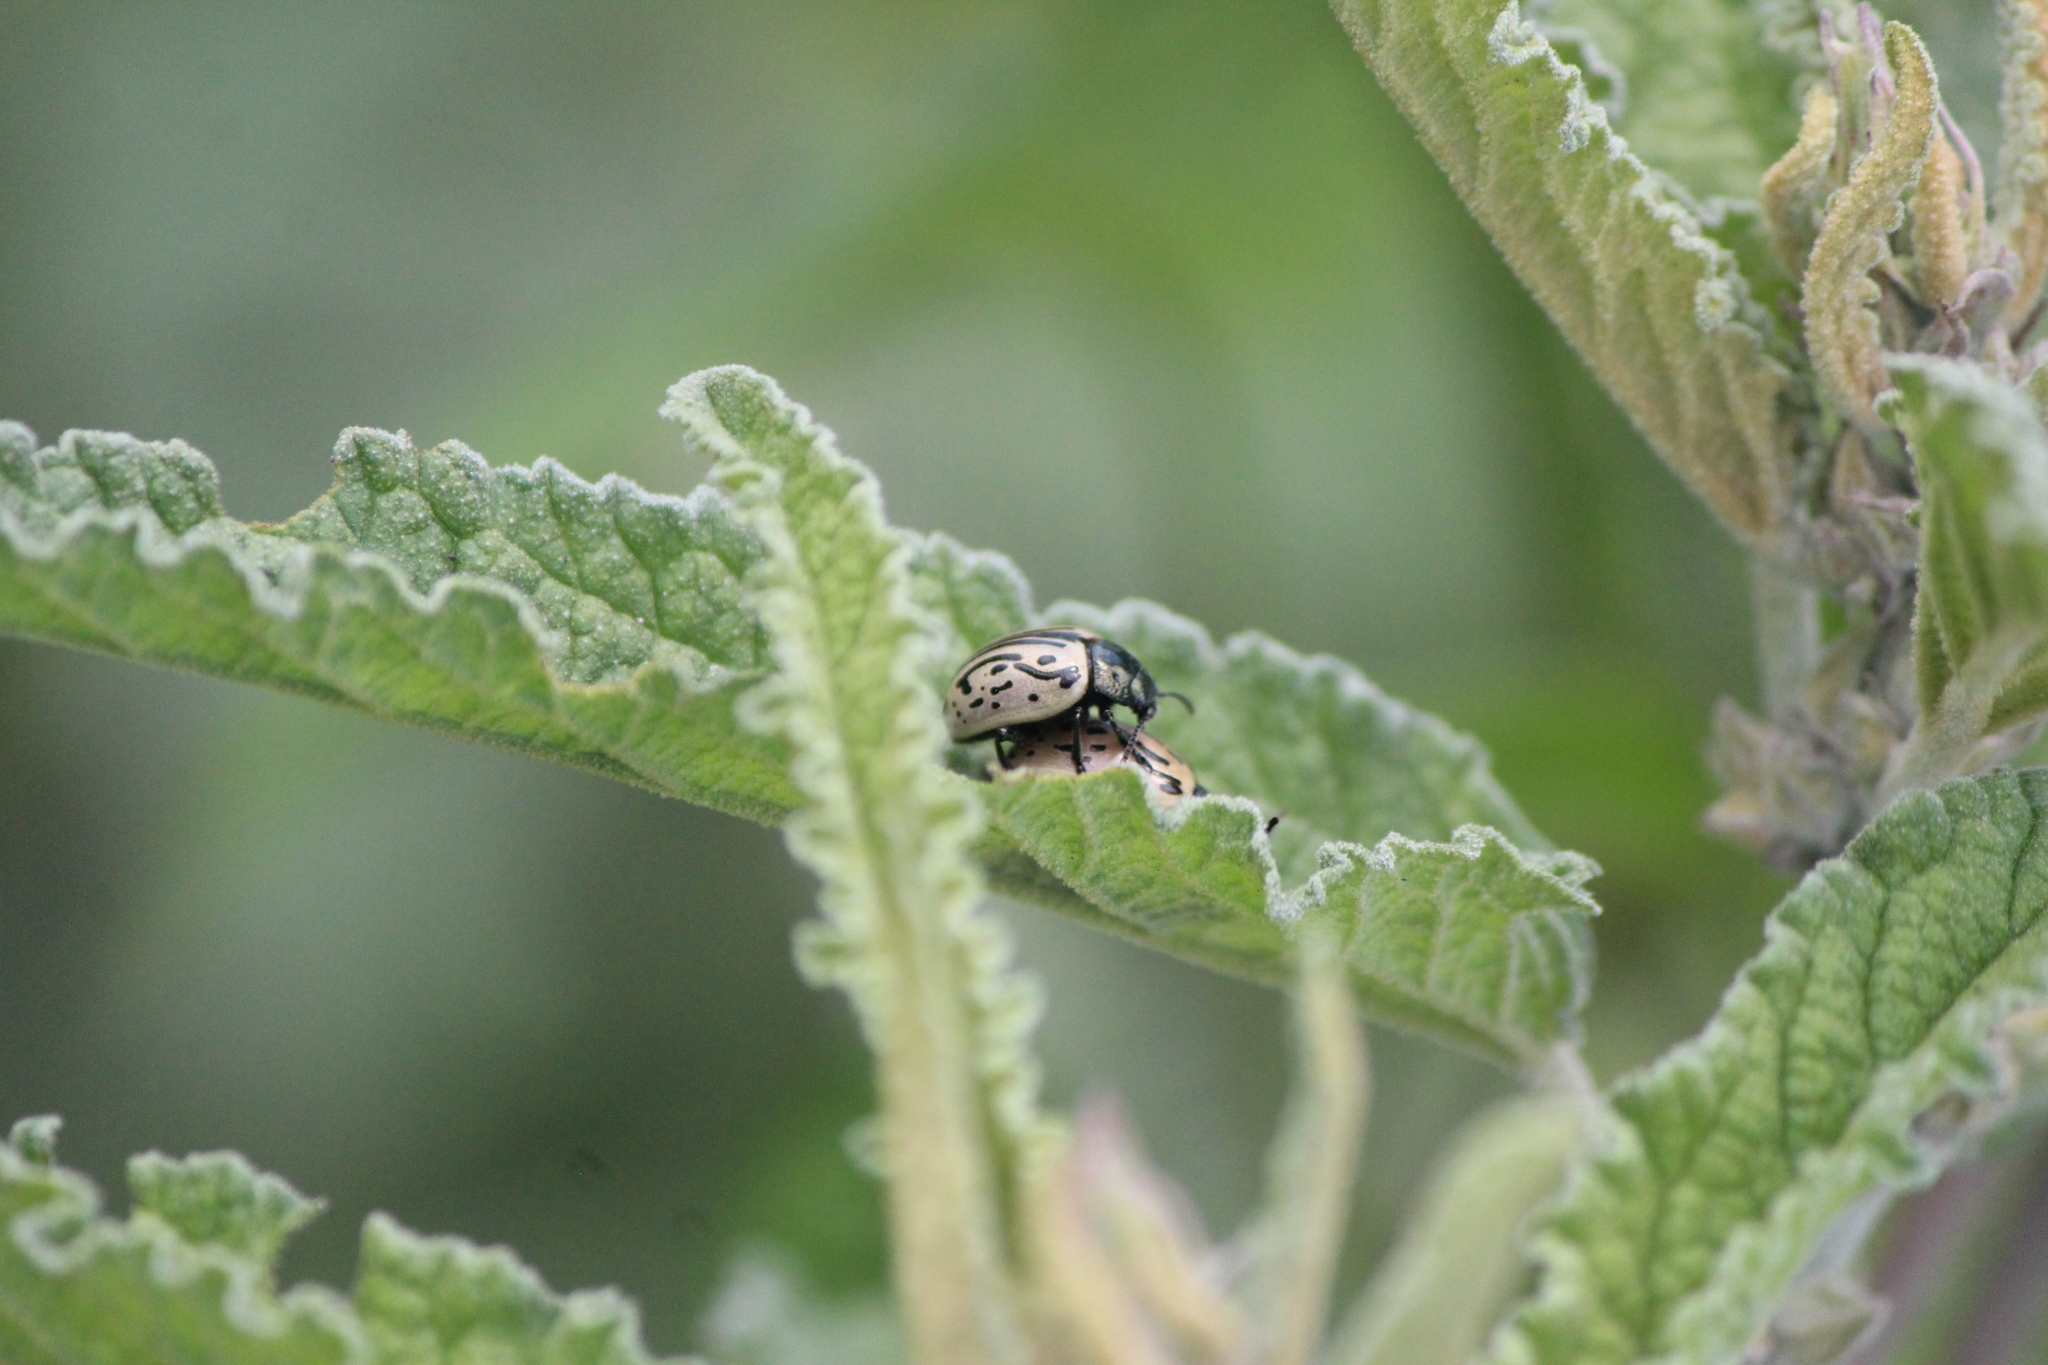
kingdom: Animalia
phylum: Arthropoda
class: Insecta
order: Coleoptera
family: Chrysomelidae
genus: Calligrapha
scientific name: Calligrapha dislocata
